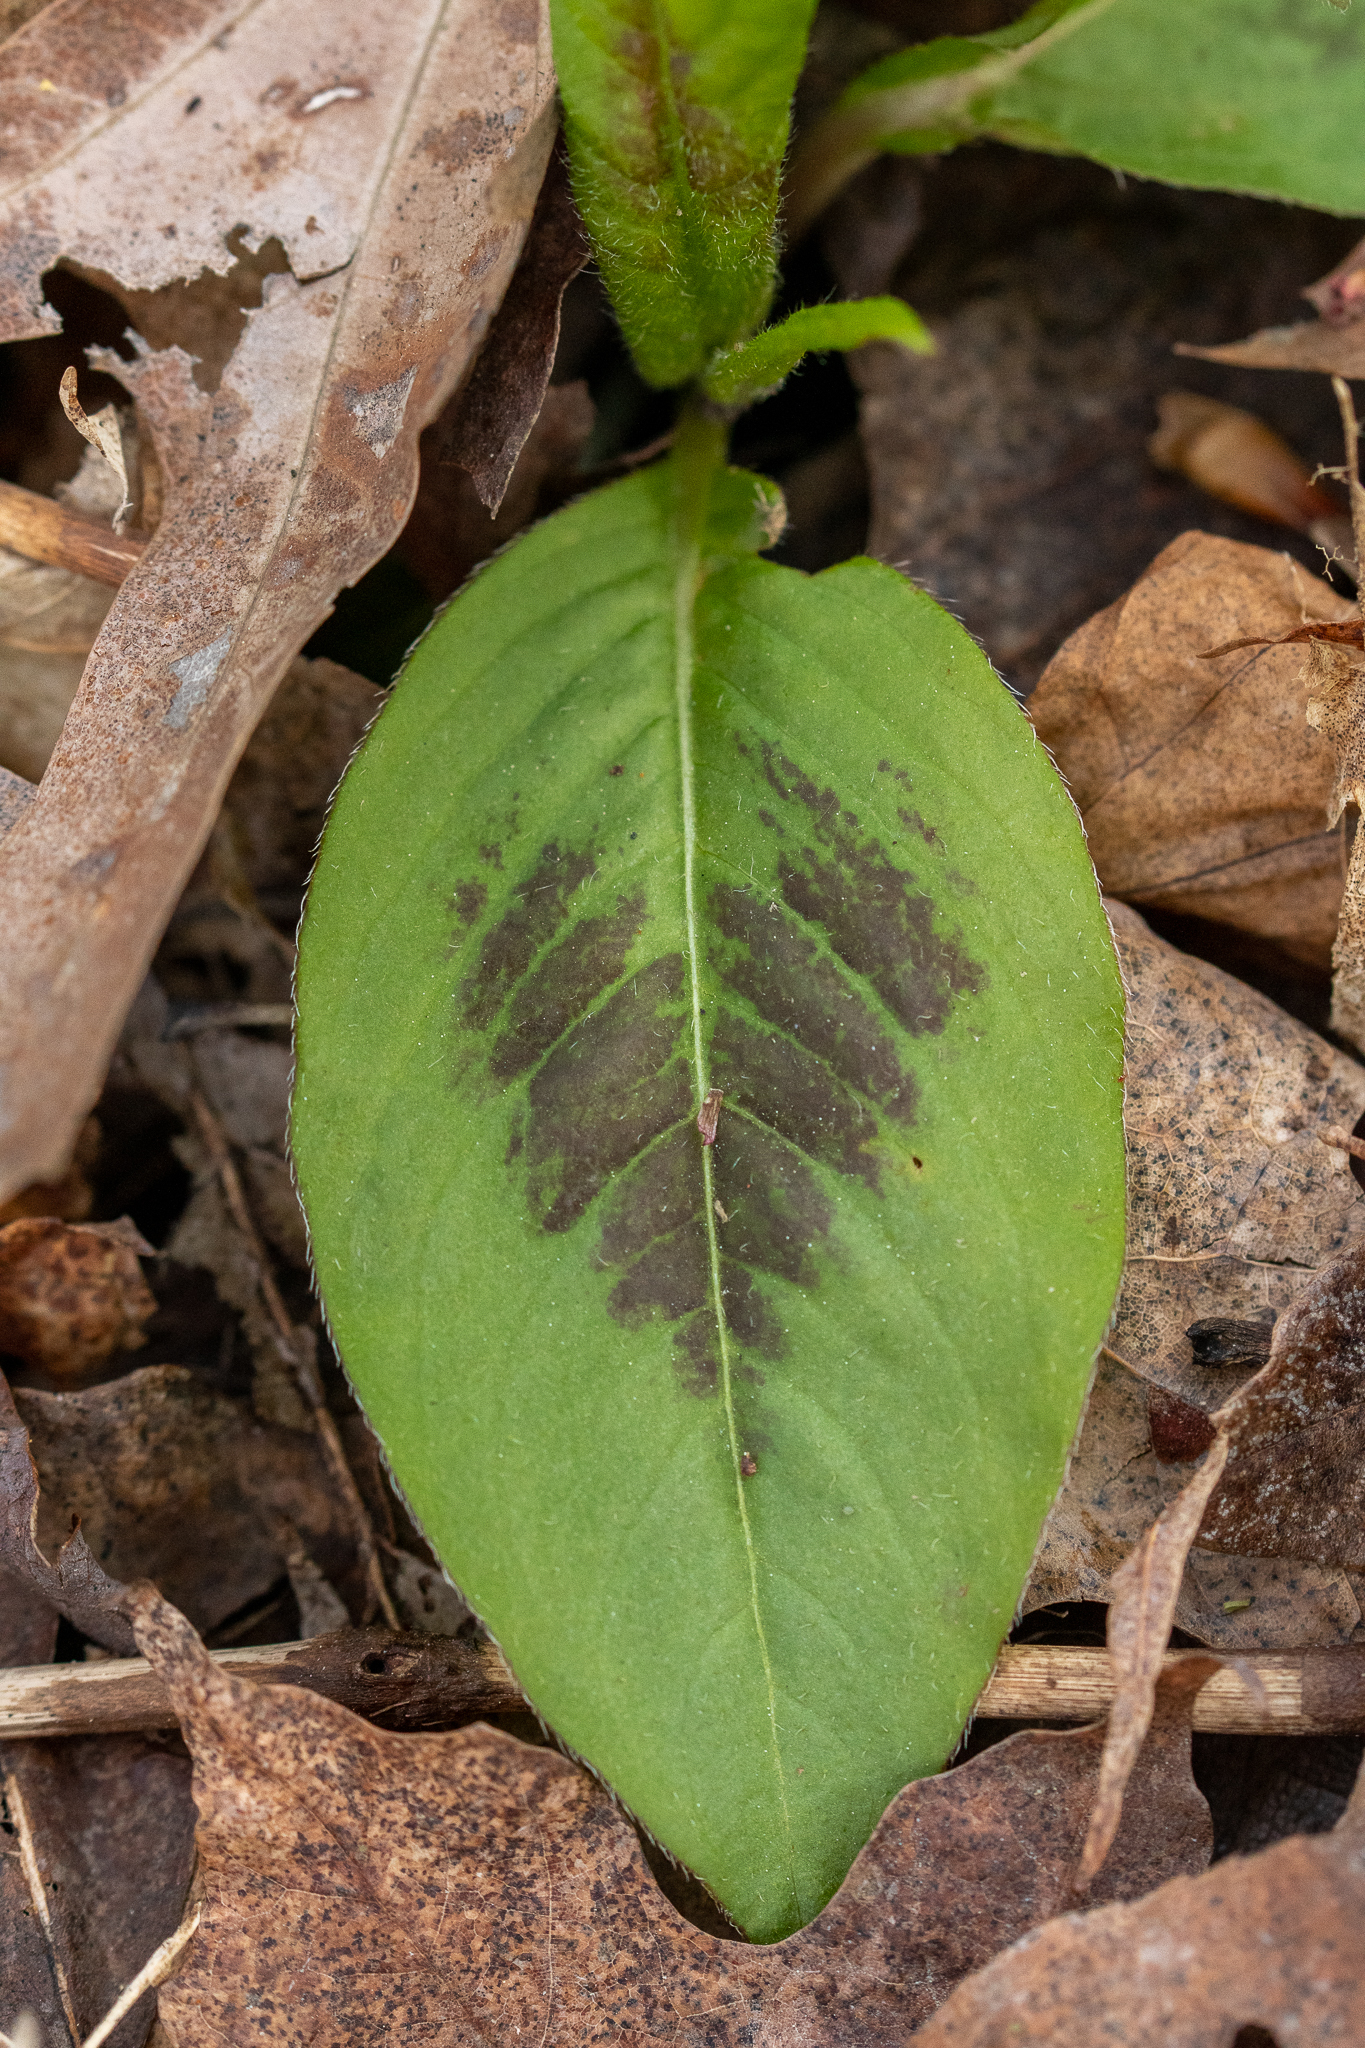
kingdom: Plantae
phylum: Tracheophyta
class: Magnoliopsida
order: Caryophyllales
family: Polygonaceae
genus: Persicaria
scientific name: Persicaria virginiana
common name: Jumpseed
